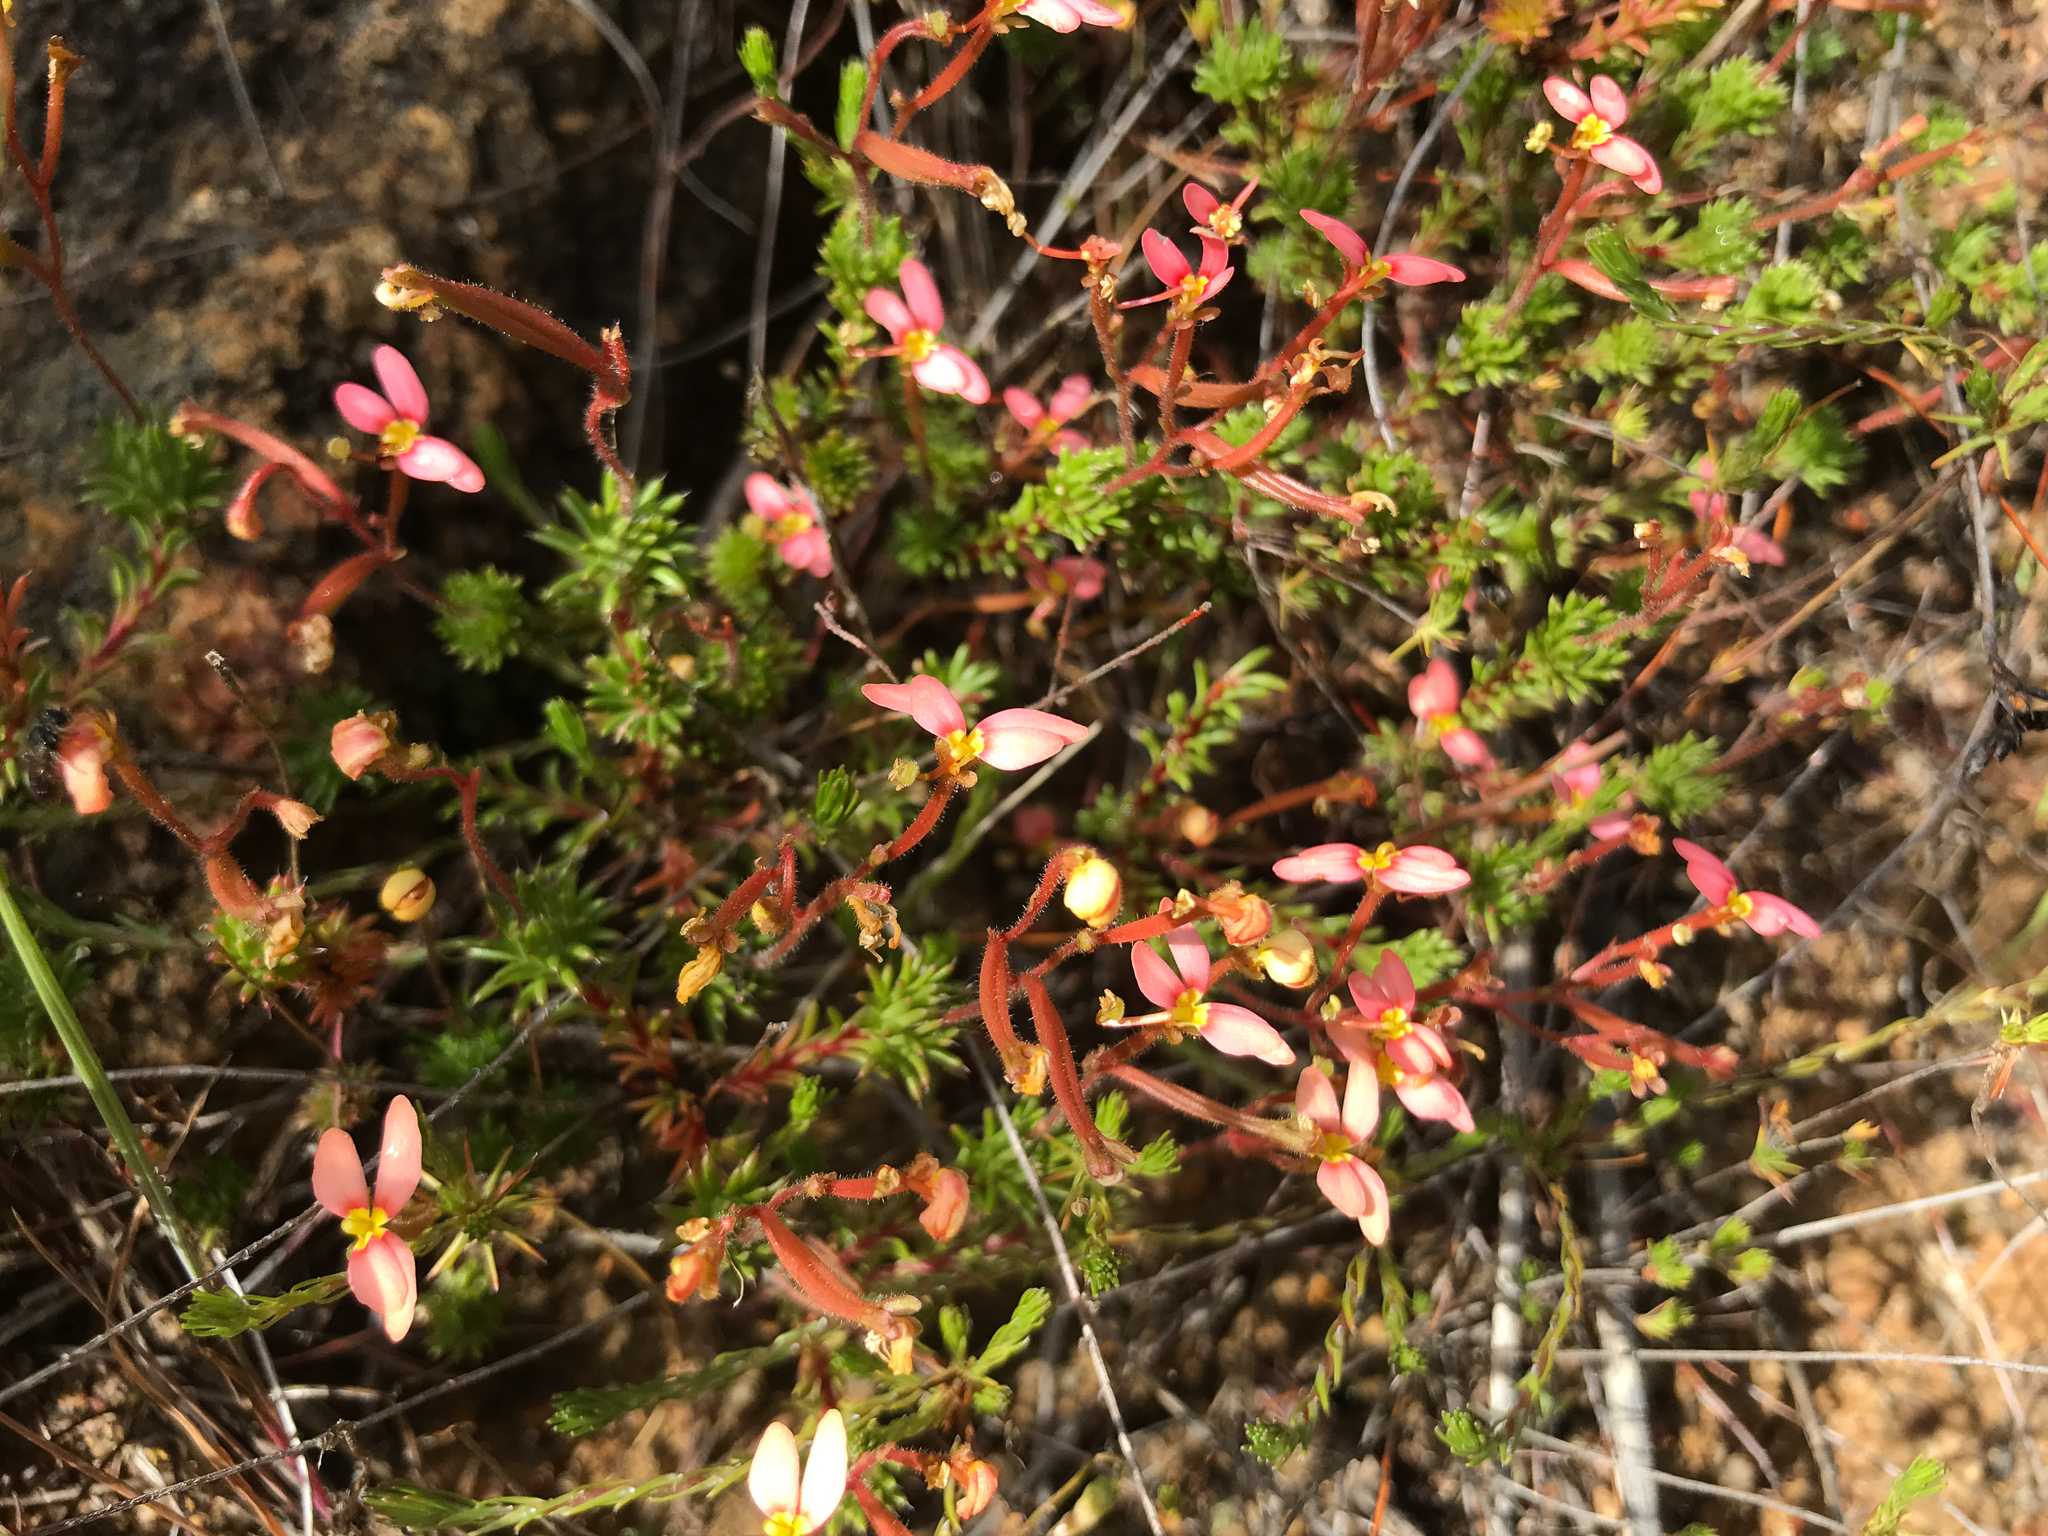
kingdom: Plantae
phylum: Tracheophyta
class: Magnoliopsida
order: Asterales
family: Stylidiaceae
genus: Stylidium
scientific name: Stylidium bulbiferum
